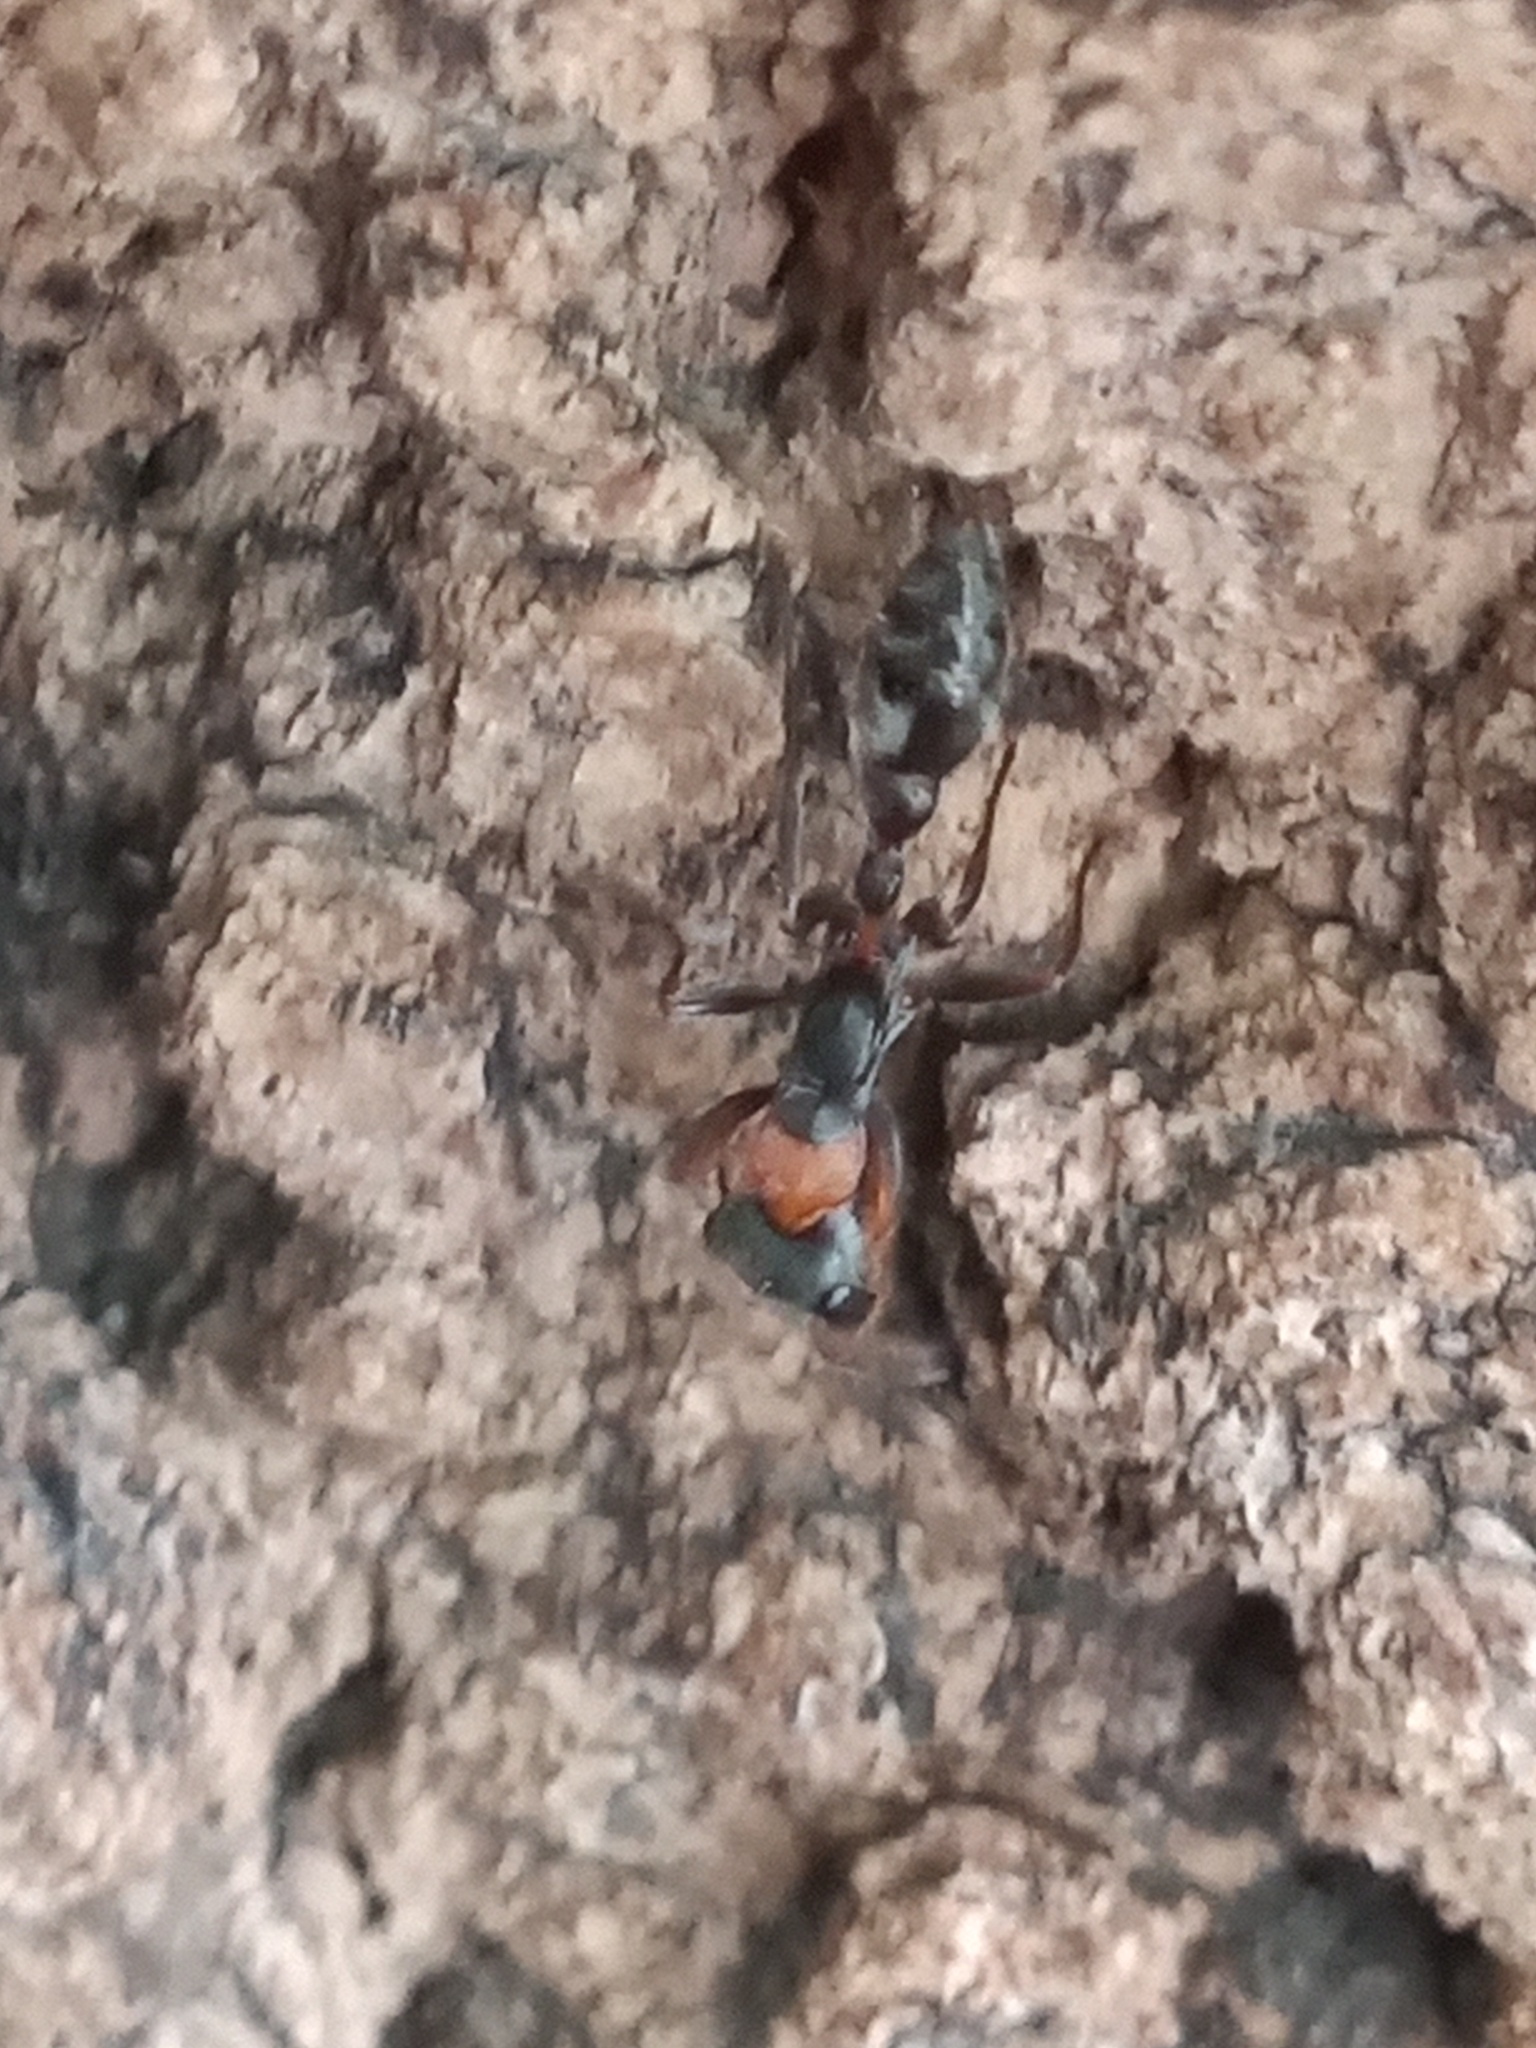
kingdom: Animalia
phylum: Arthropoda
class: Insecta
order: Hymenoptera
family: Formicidae
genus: Pseudomyrmex
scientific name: Pseudomyrmex gracilis
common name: Graceful twig ant
